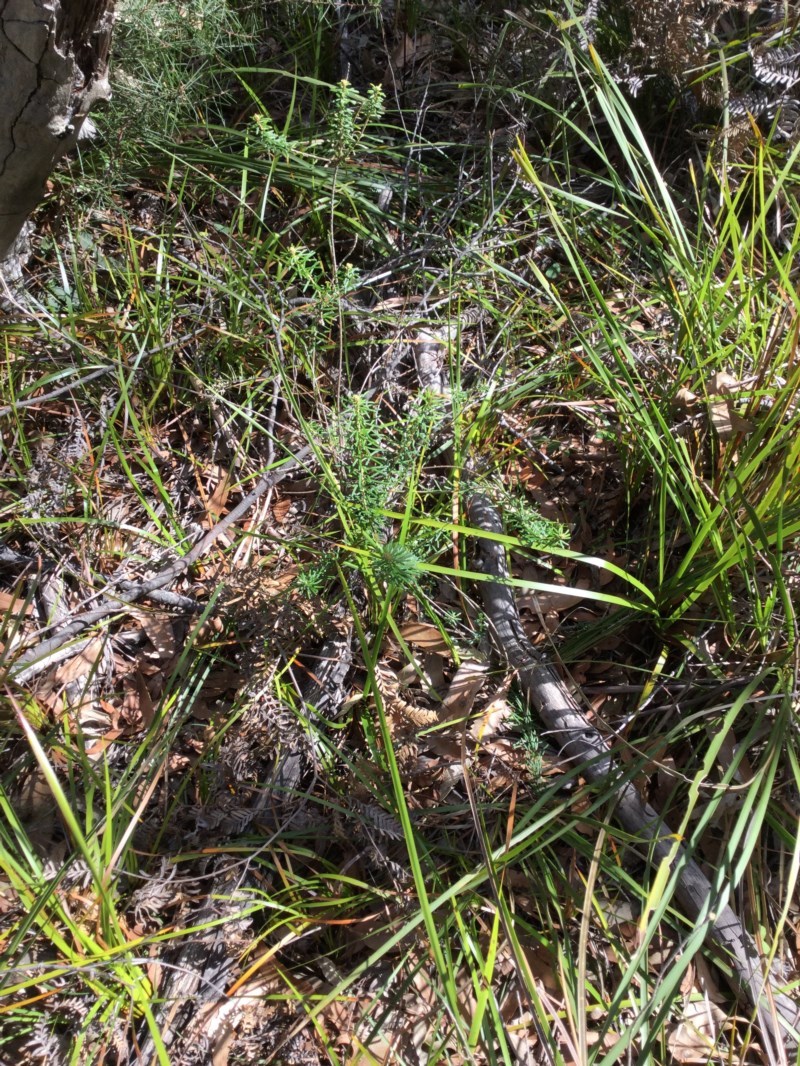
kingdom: Plantae
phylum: Tracheophyta
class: Magnoliopsida
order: Apiales
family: Araliaceae
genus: Astrotricha
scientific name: Astrotricha
